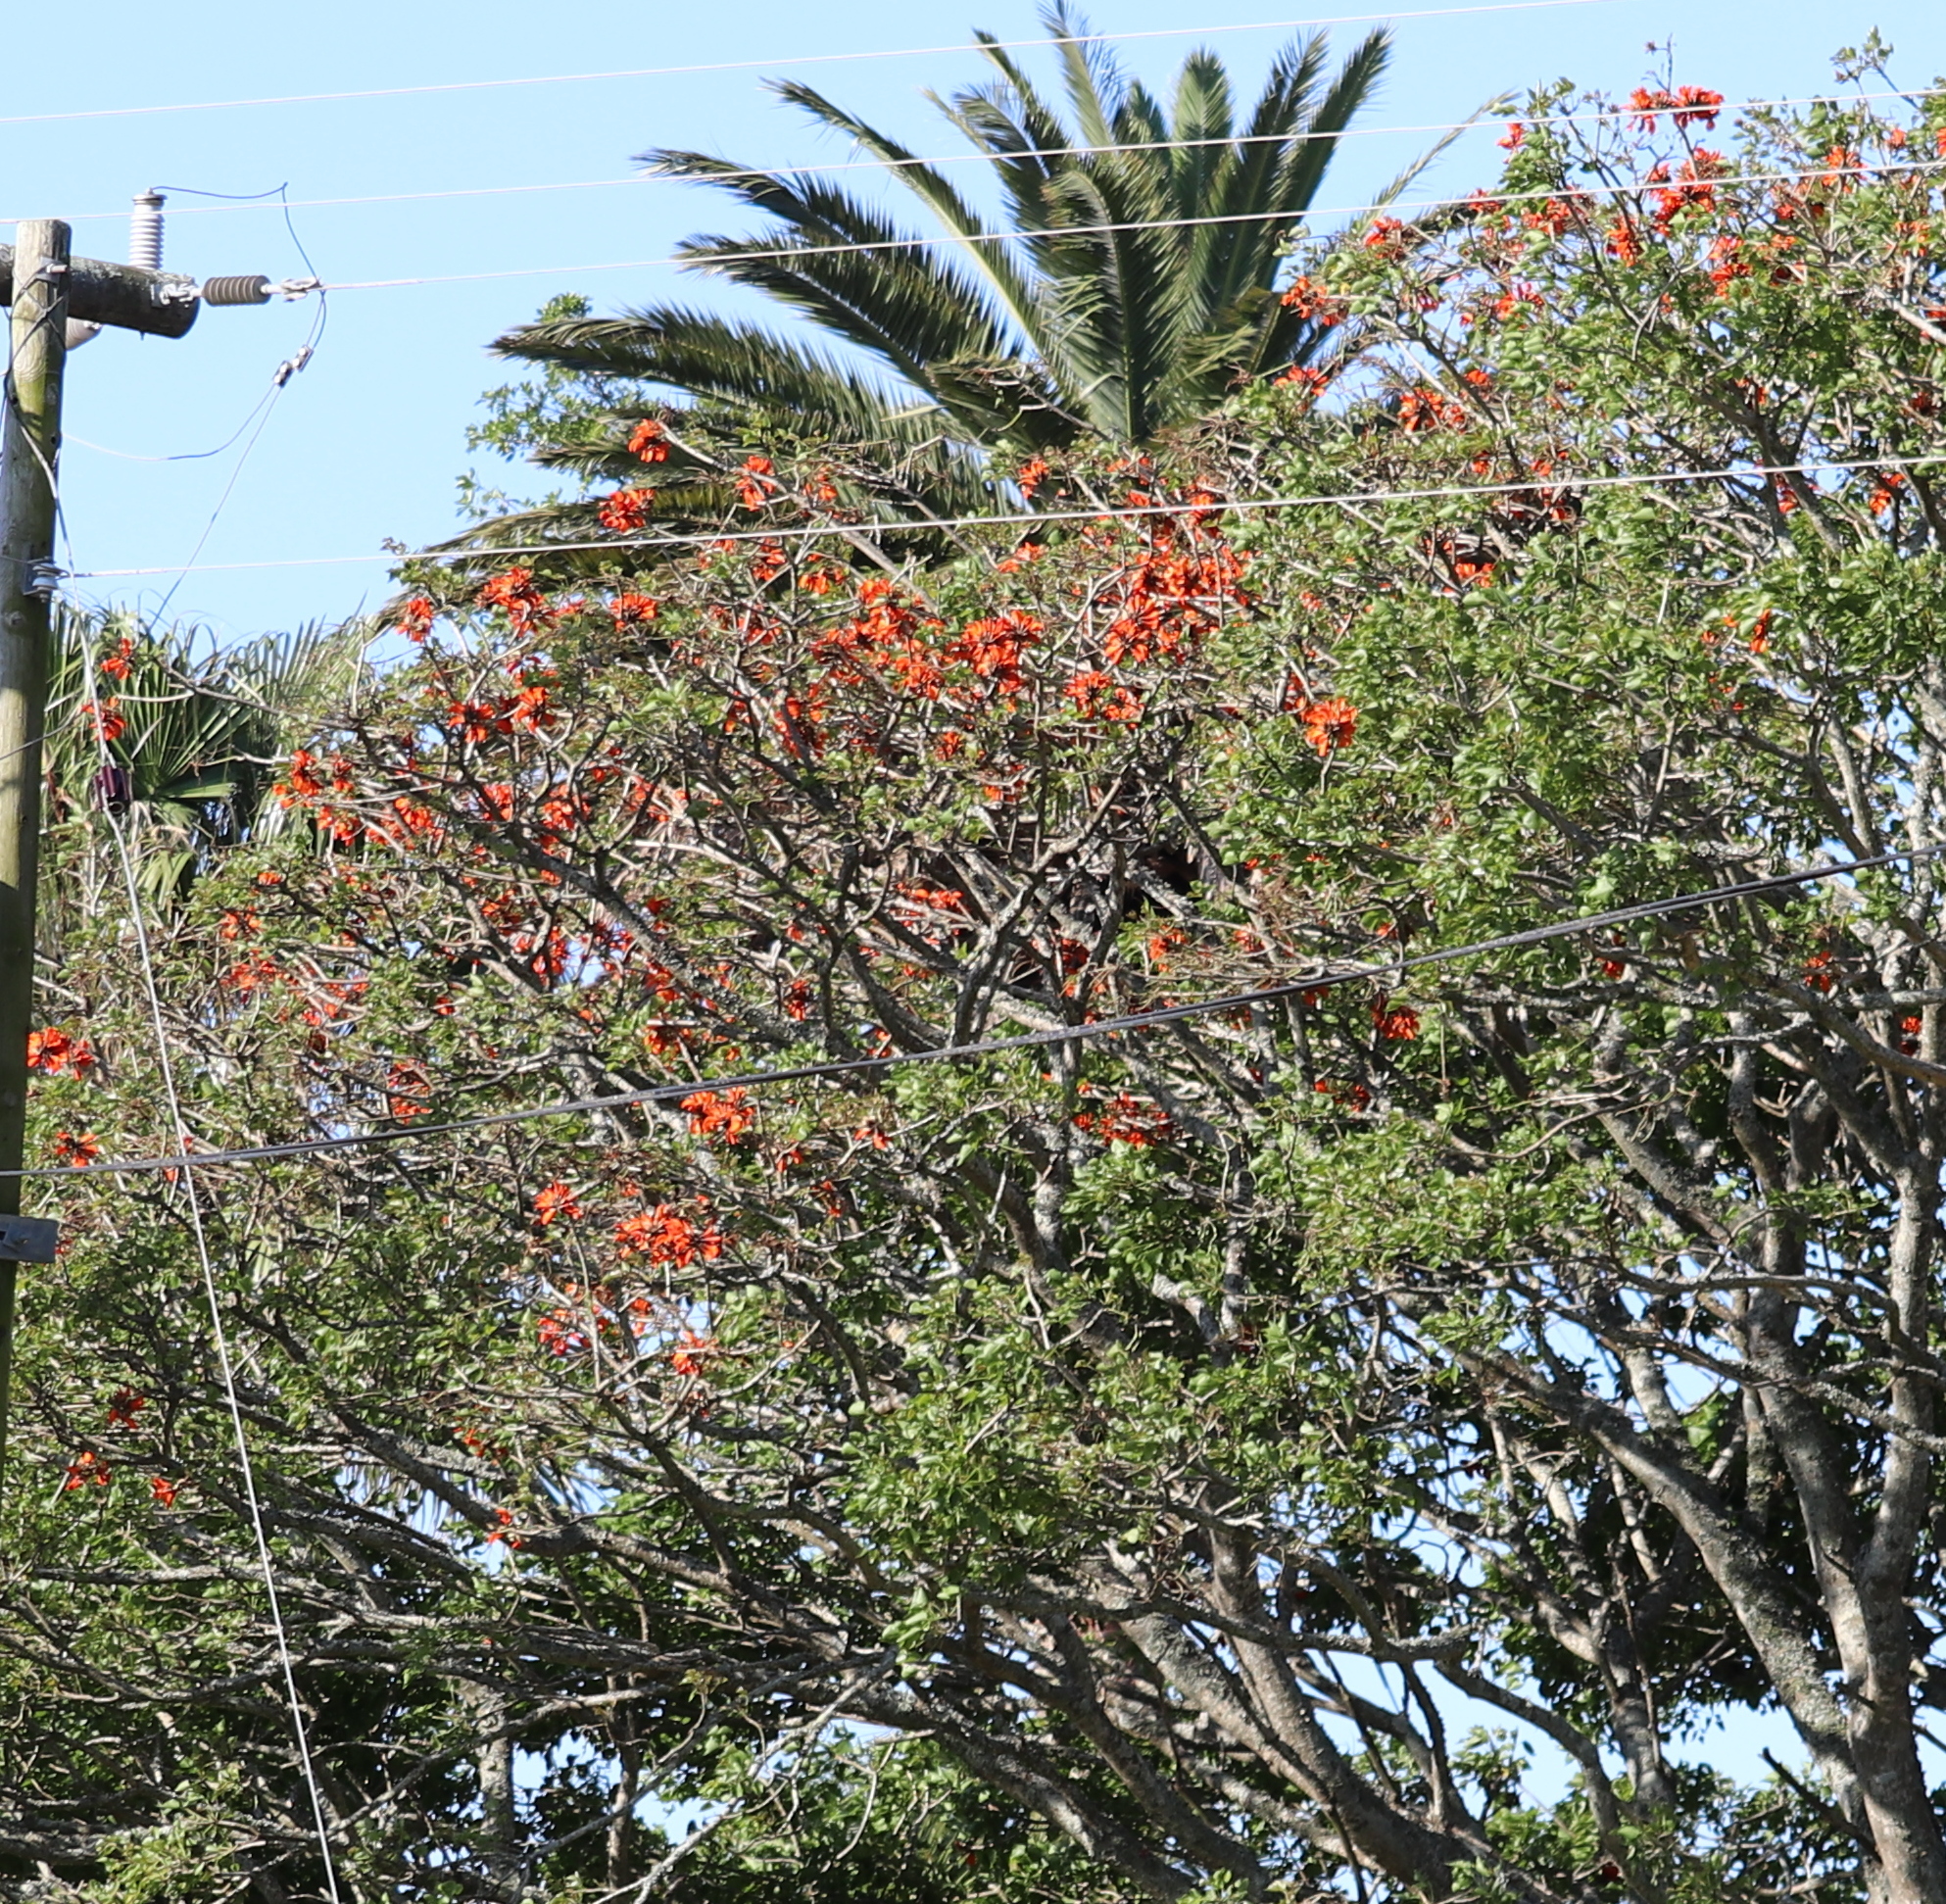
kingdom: Plantae
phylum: Tracheophyta
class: Magnoliopsida
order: Fabales
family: Fabaceae
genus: Erythrina
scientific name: Erythrina caffra
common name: Coast coral tree
